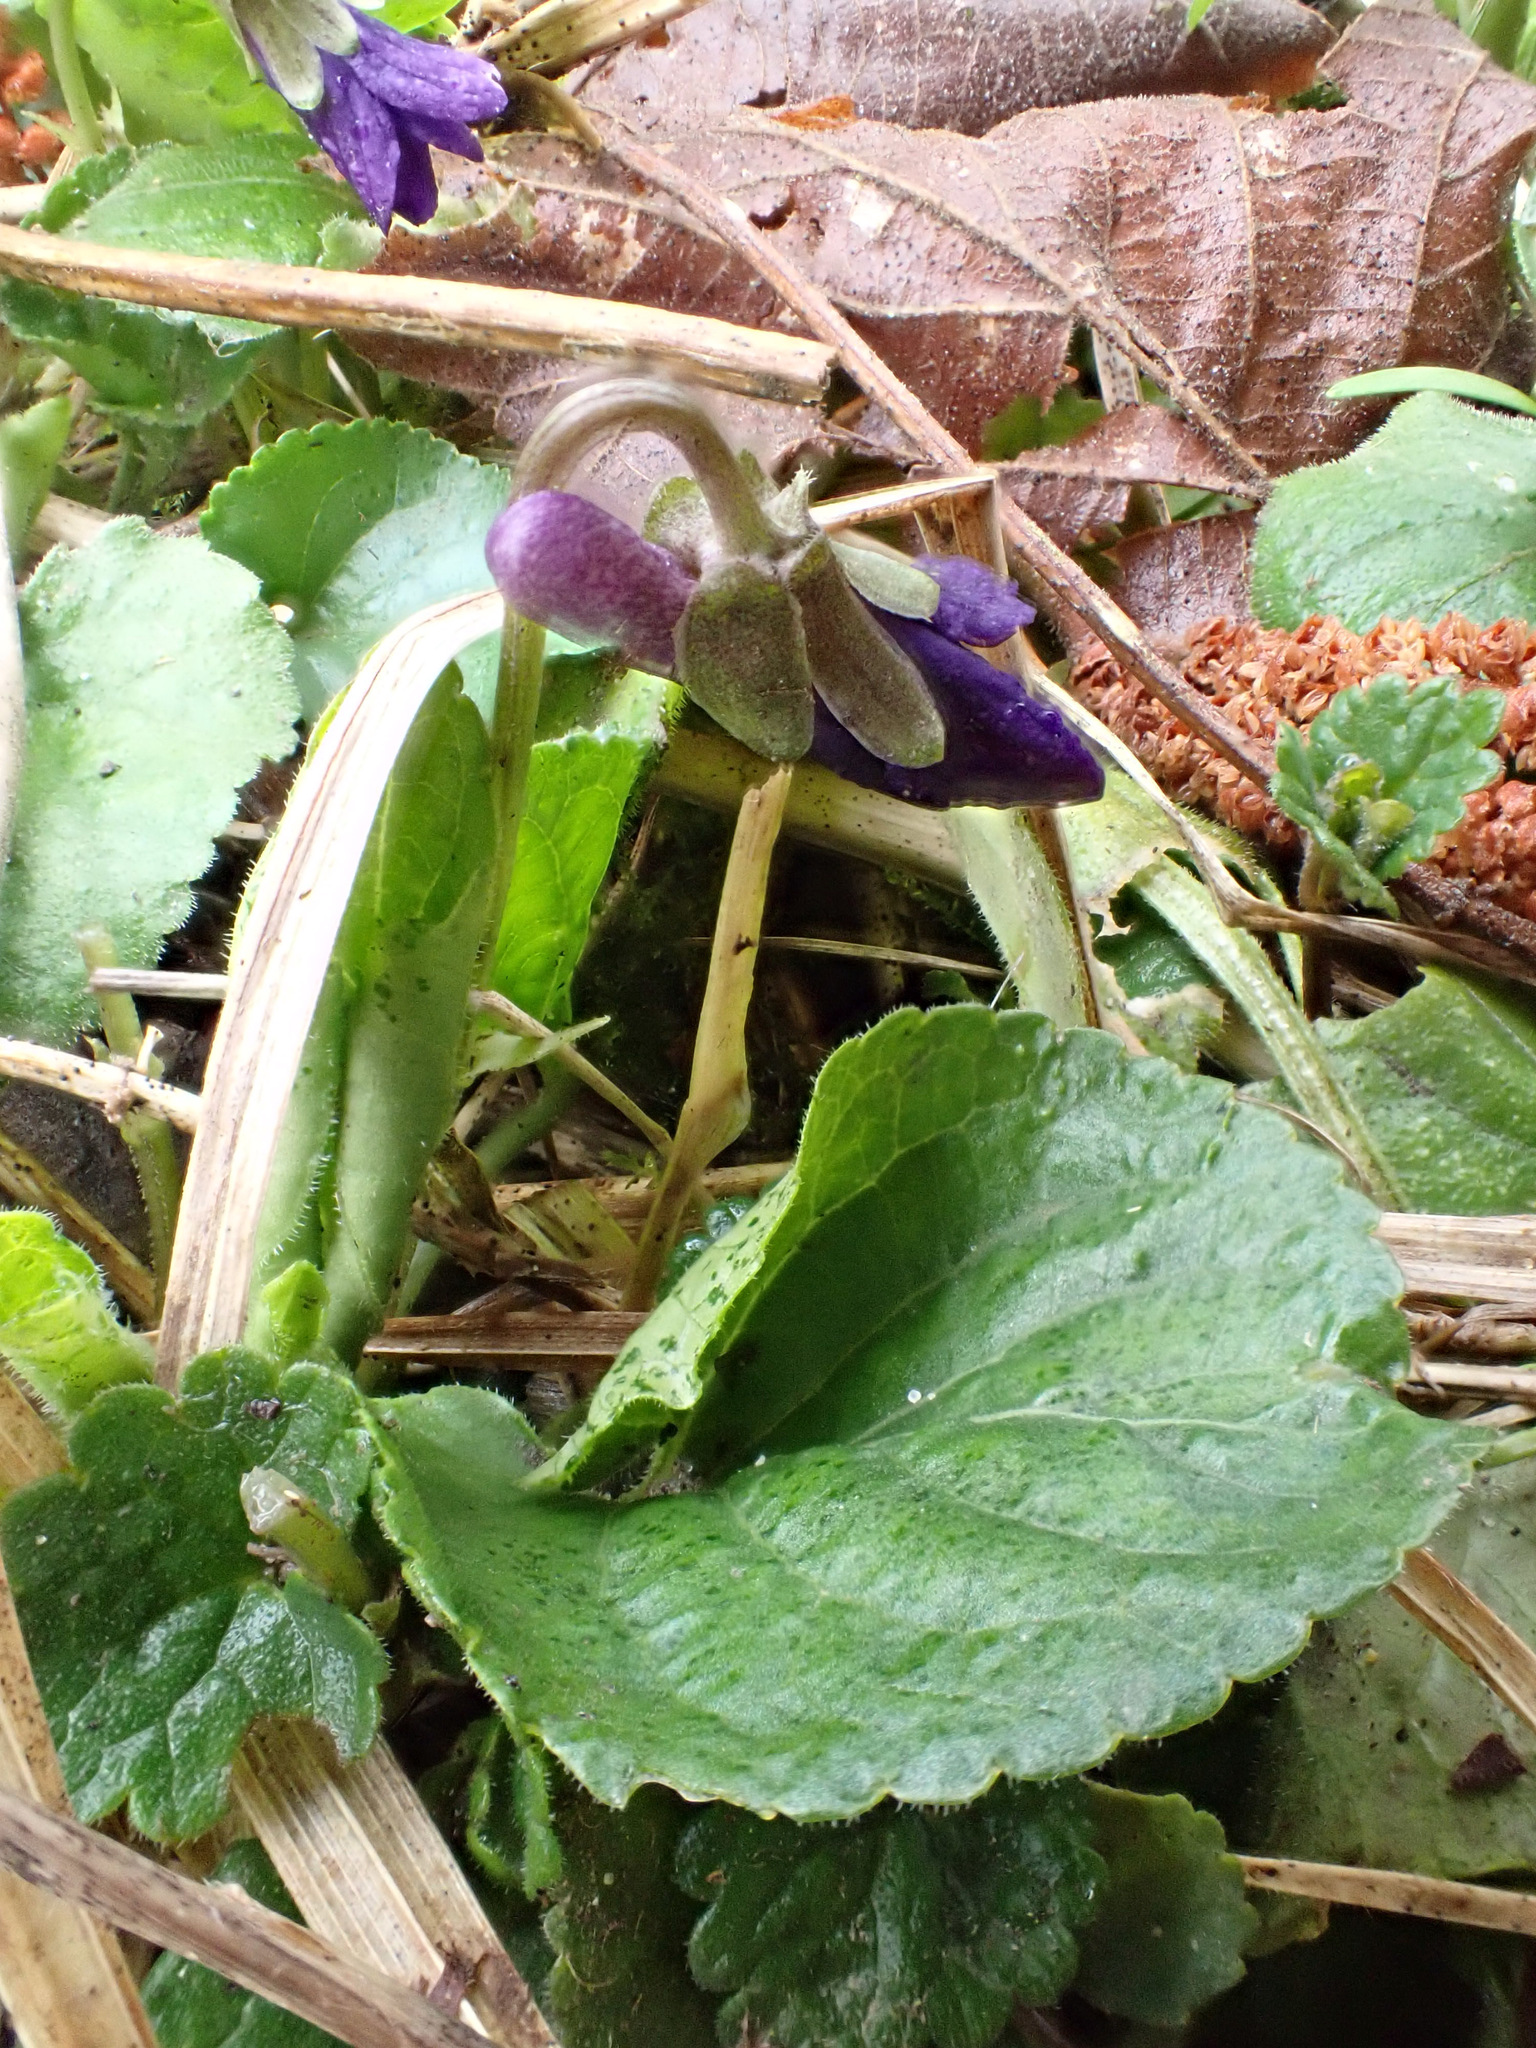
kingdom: Plantae
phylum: Tracheophyta
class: Magnoliopsida
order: Malpighiales
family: Violaceae
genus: Viola
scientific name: Viola odorata
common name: Sweet violet
